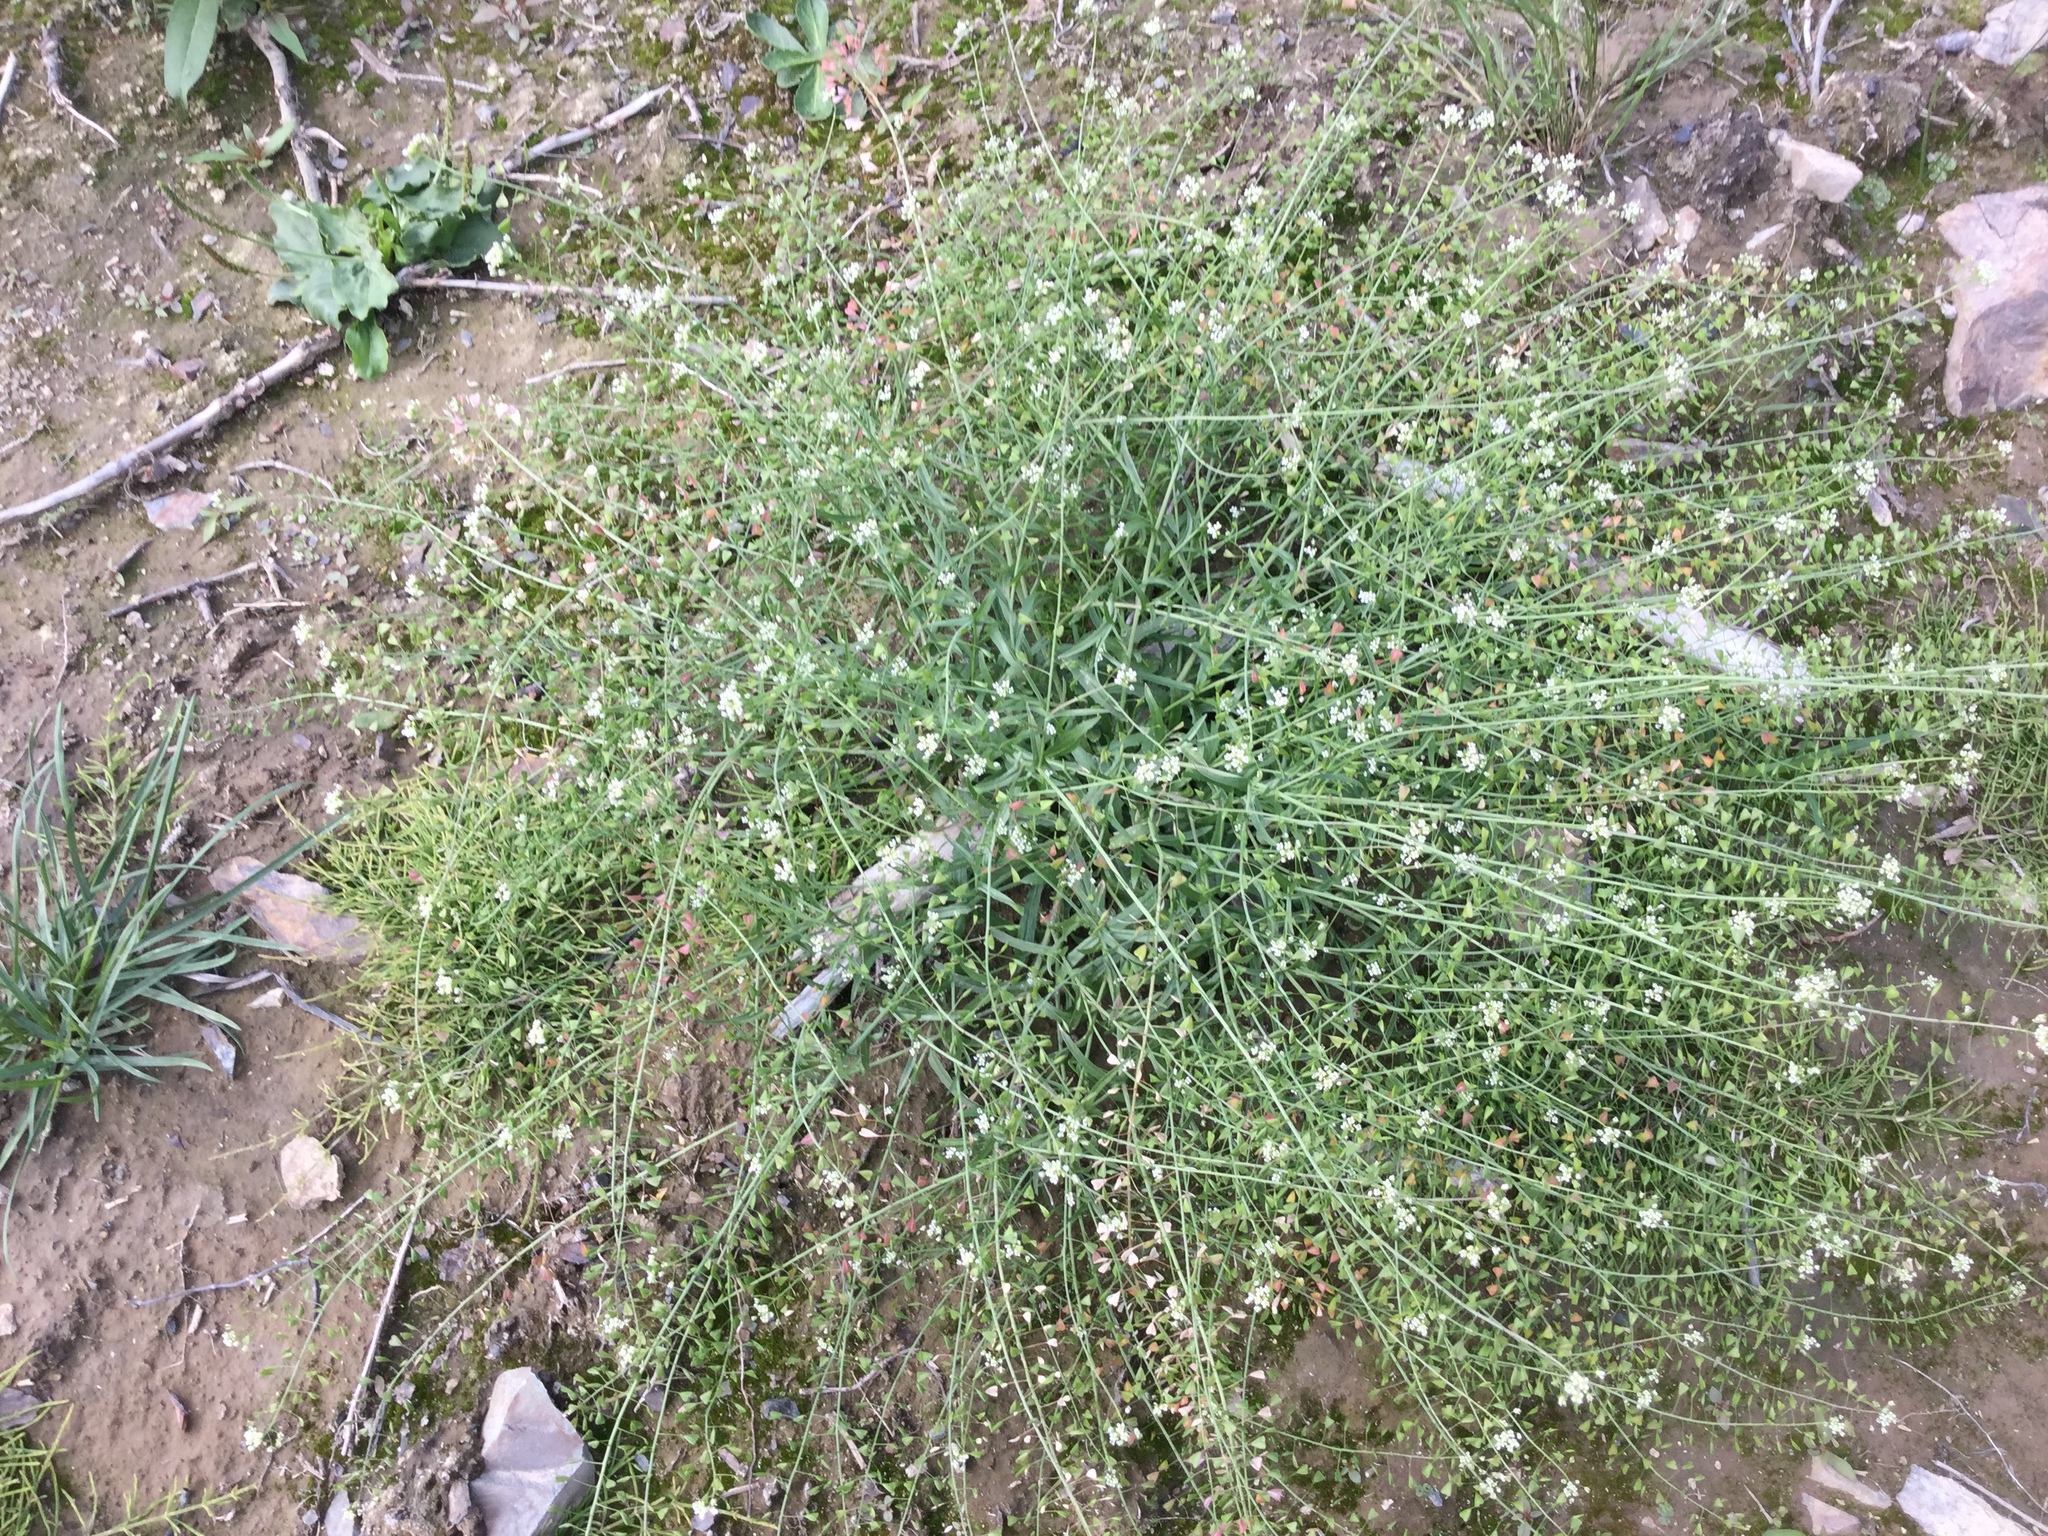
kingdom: Plantae
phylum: Tracheophyta
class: Magnoliopsida
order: Brassicales
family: Brassicaceae
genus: Capsella
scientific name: Capsella bursa-pastoris
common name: Shepherd's purse
